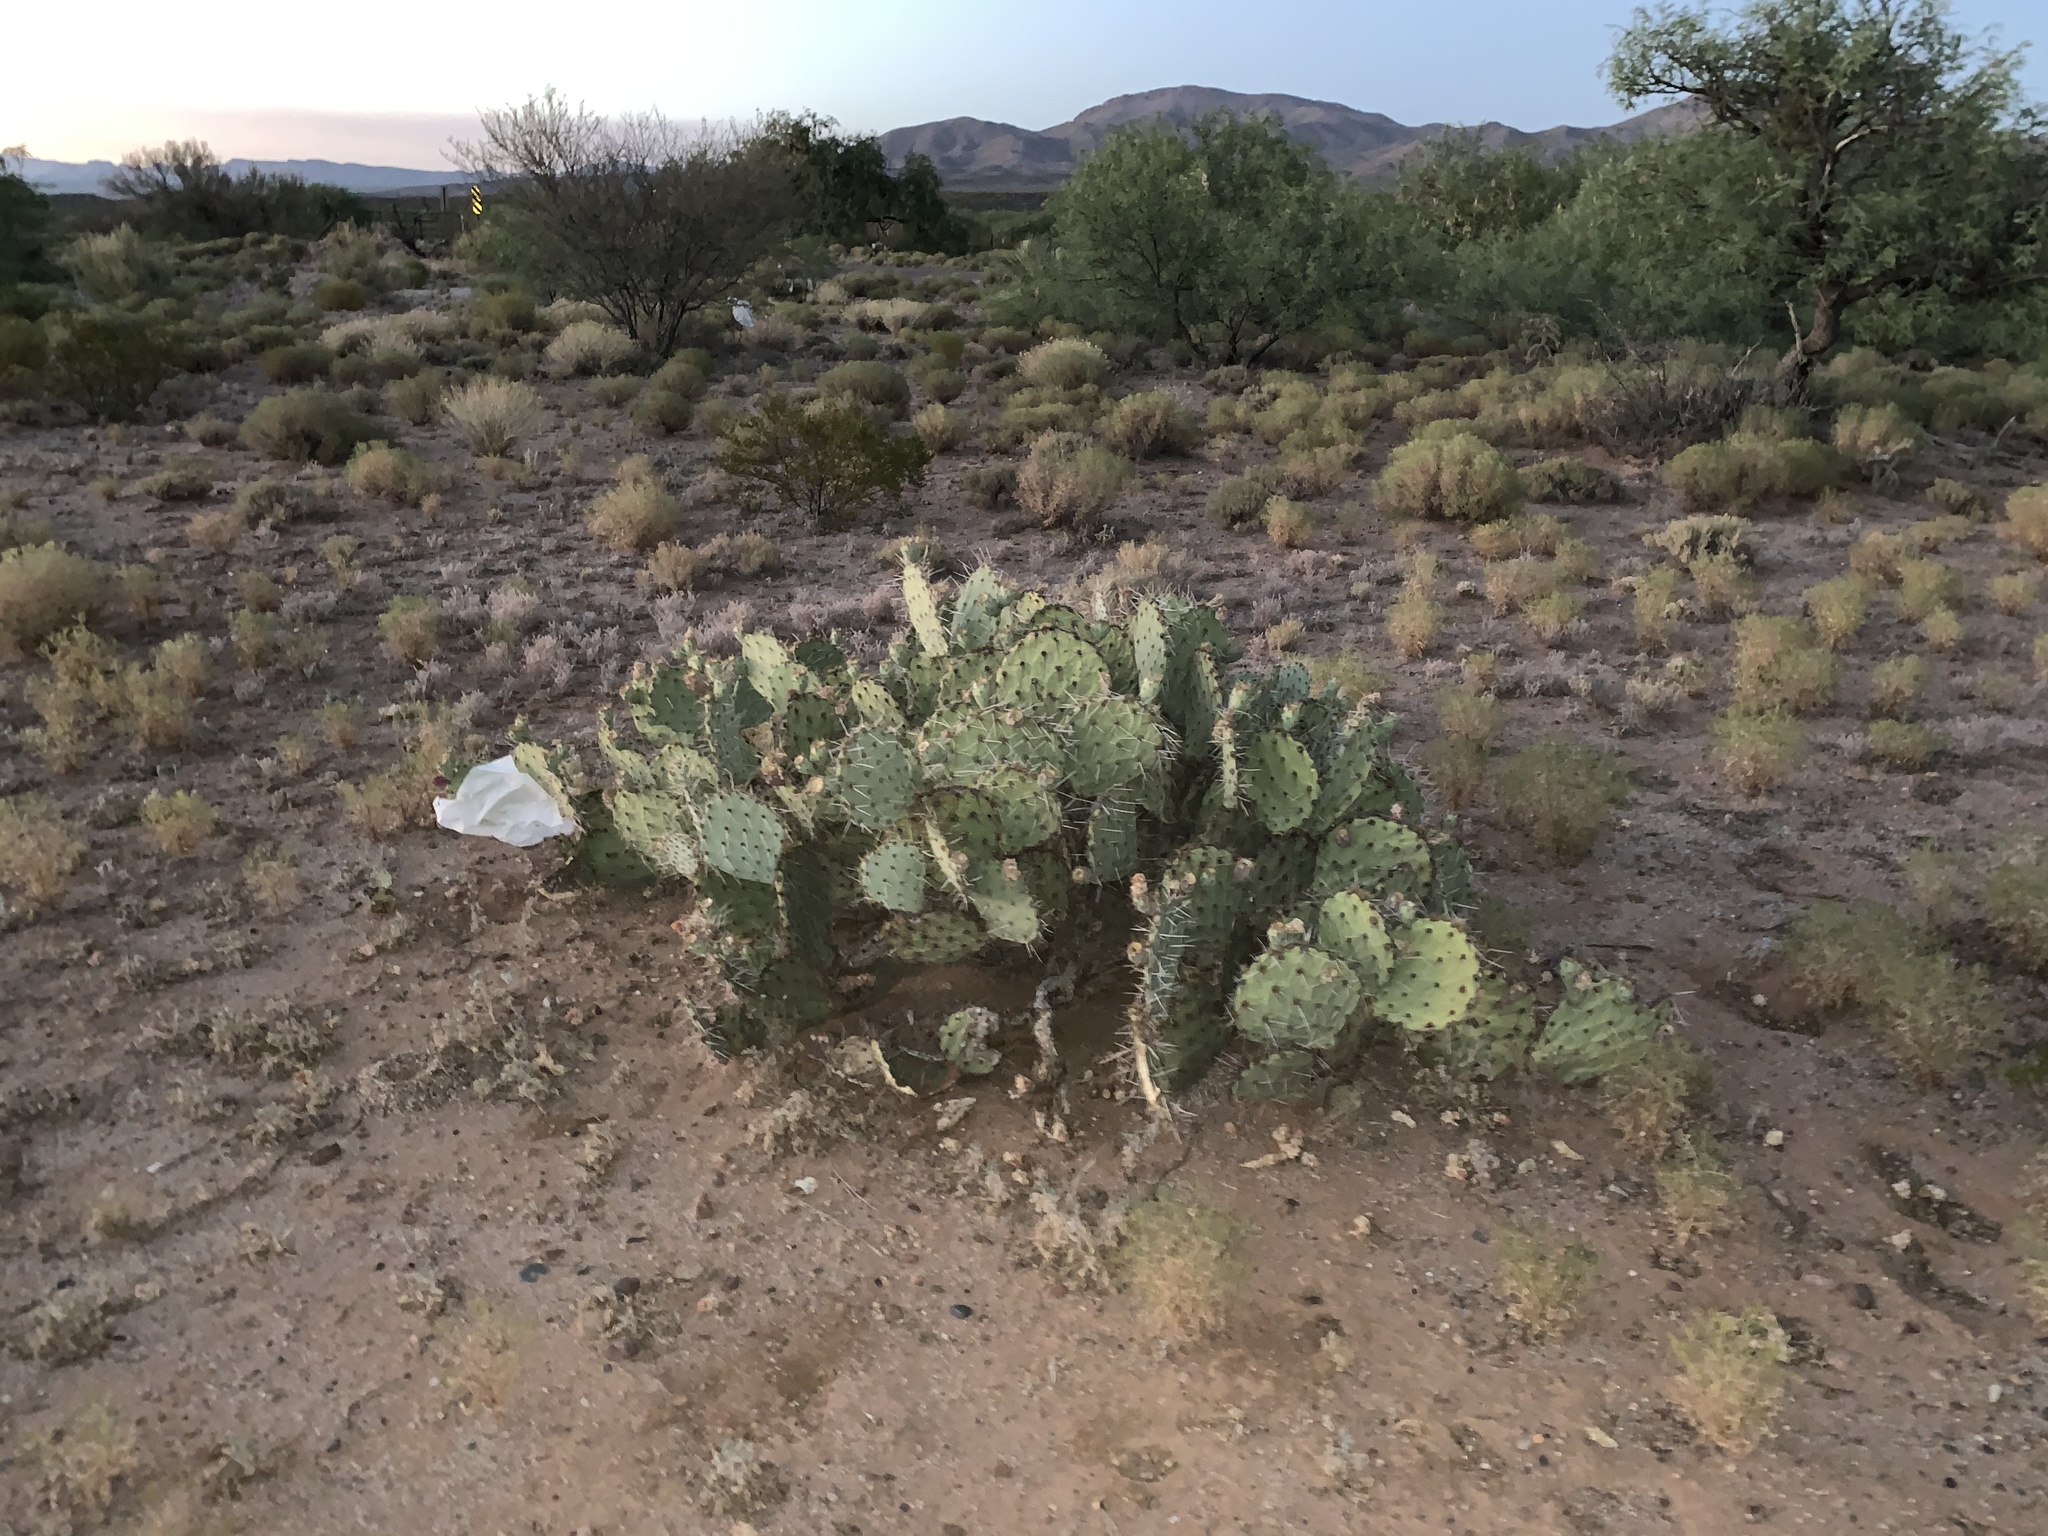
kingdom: Plantae
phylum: Tracheophyta
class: Magnoliopsida
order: Caryophyllales
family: Cactaceae
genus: Opuntia
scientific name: Opuntia engelmannii
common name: Cactus-apple
